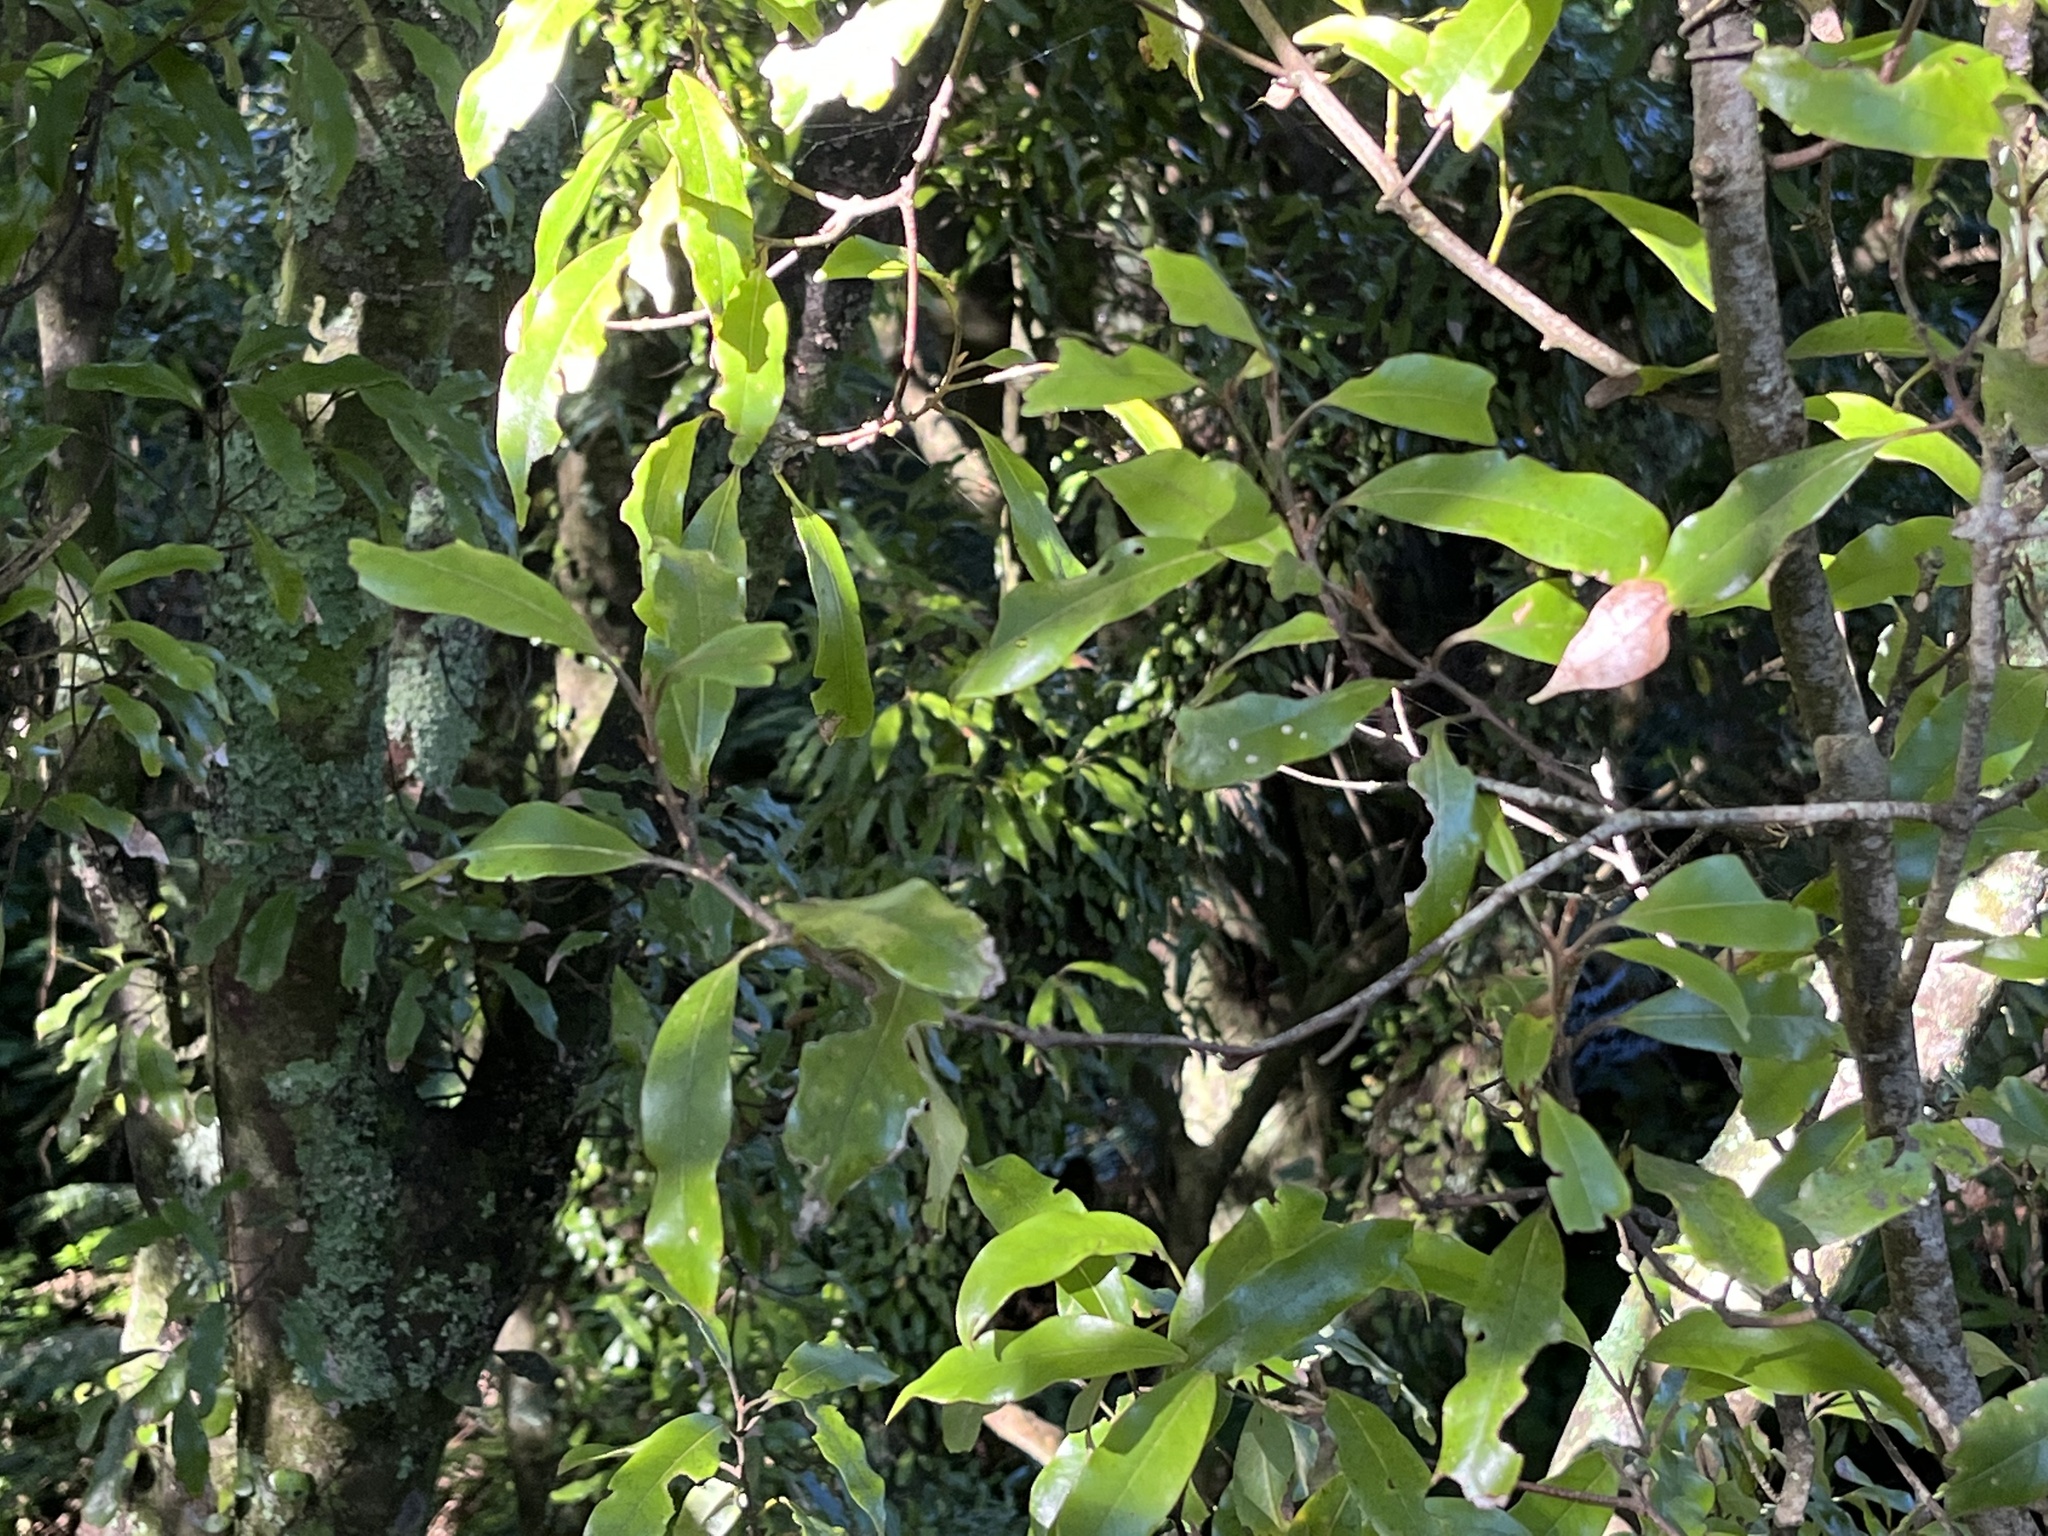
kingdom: Plantae
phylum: Tracheophyta
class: Magnoliopsida
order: Laurales
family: Lauraceae
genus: Beilschmiedia
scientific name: Beilschmiedia tawa
